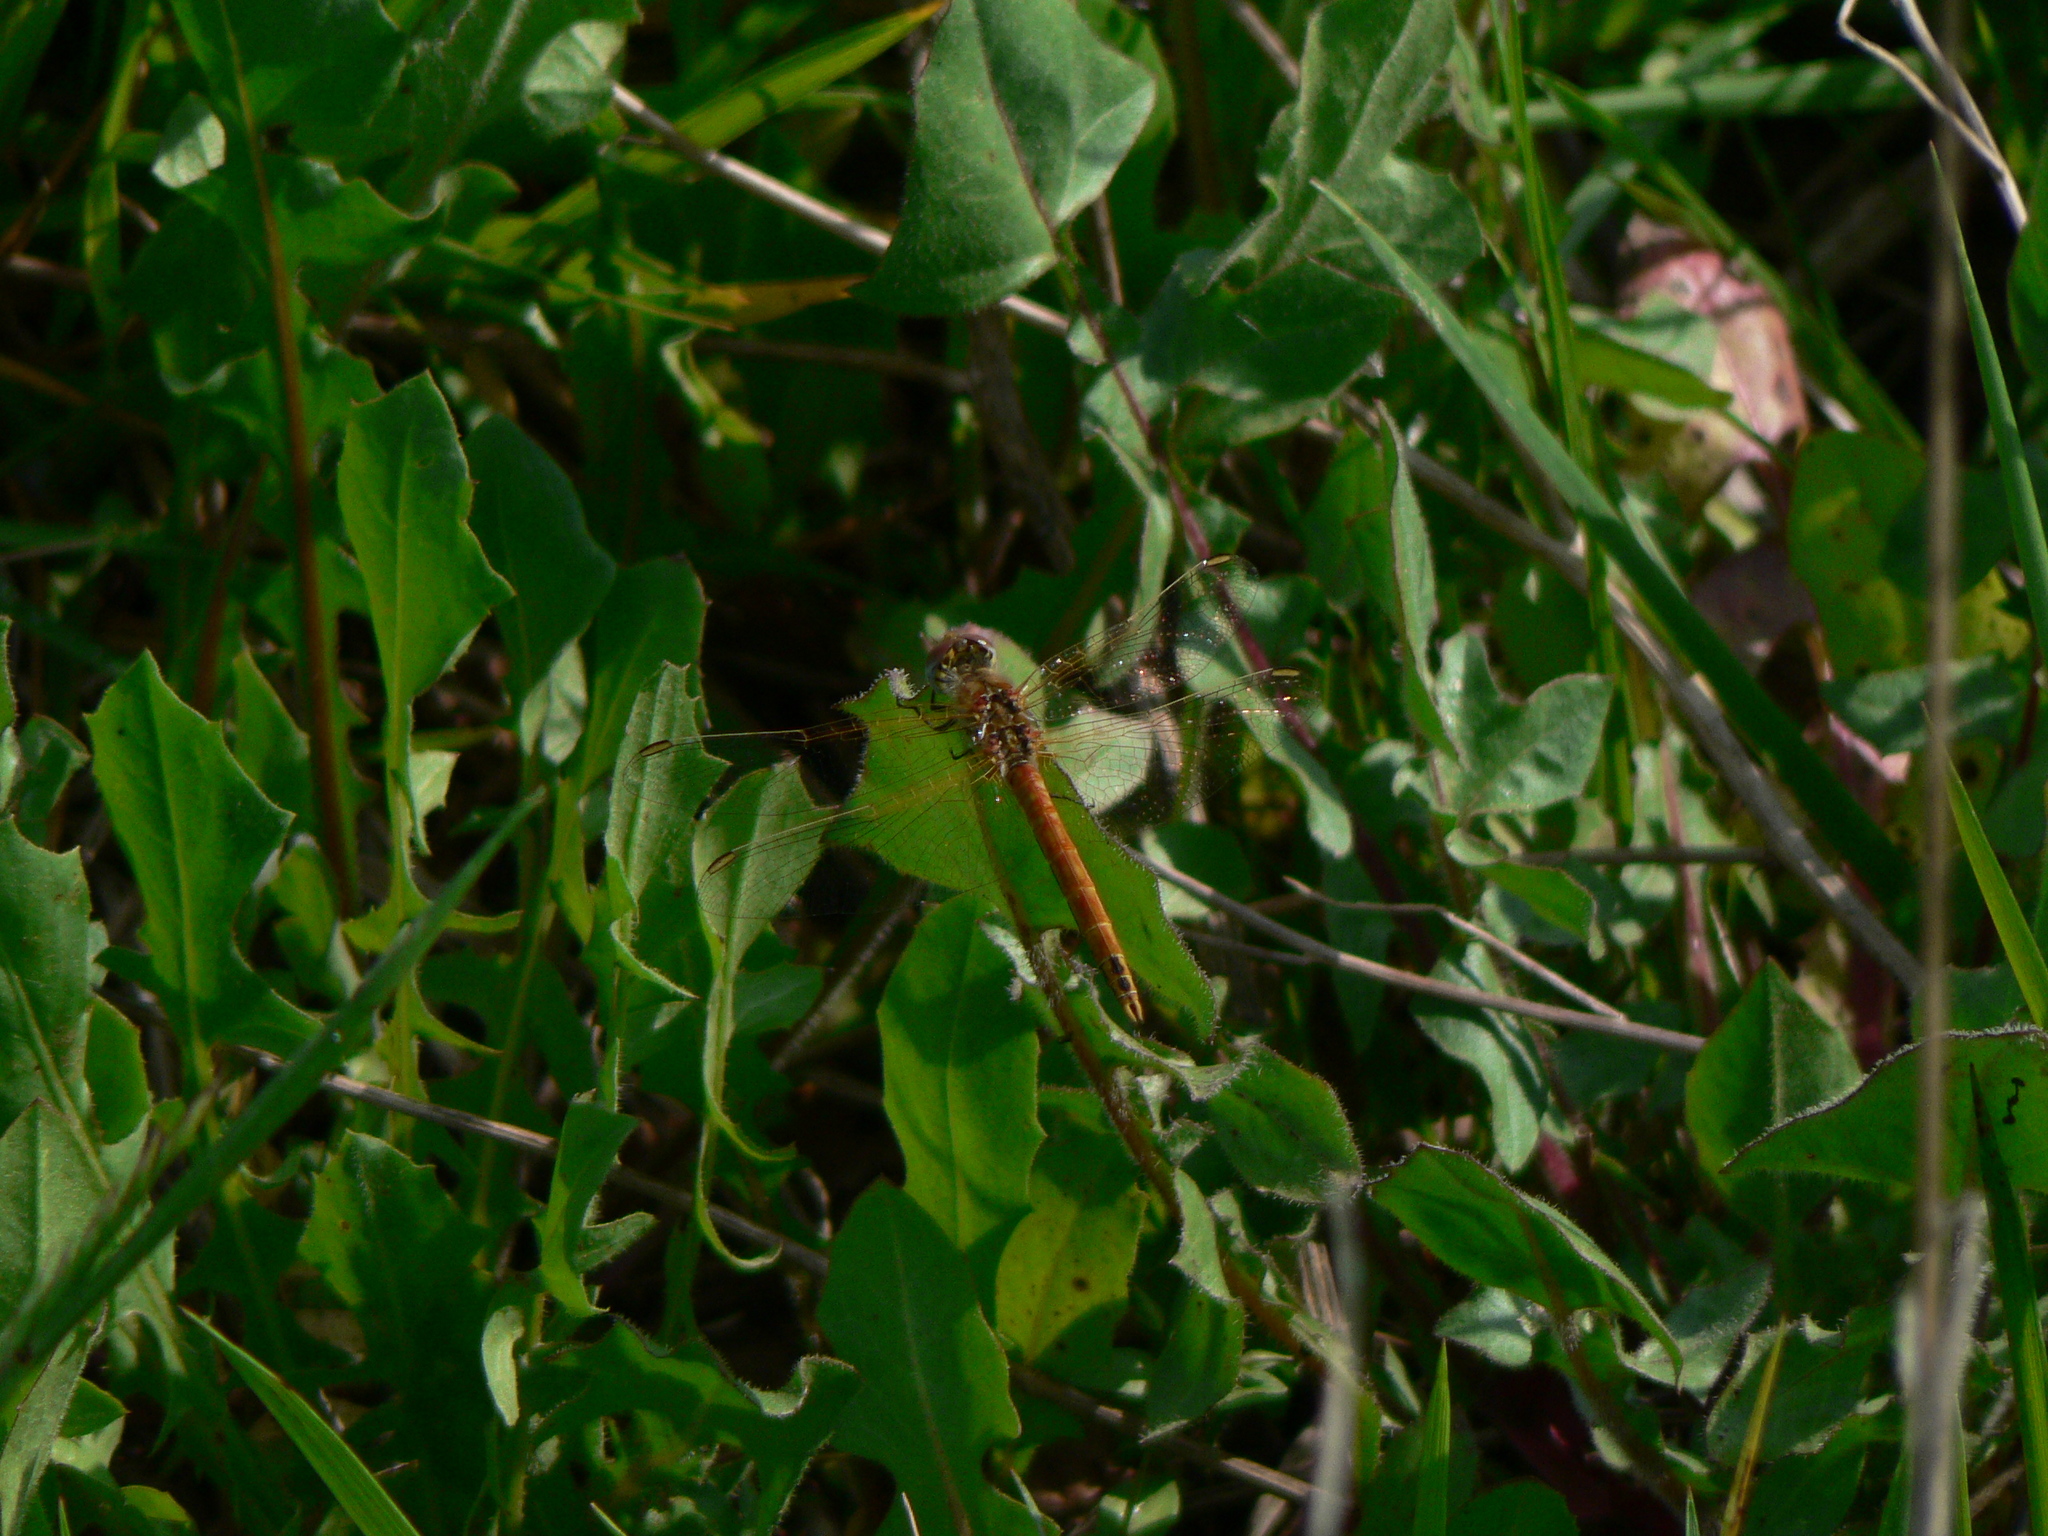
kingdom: Animalia
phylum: Arthropoda
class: Insecta
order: Odonata
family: Libellulidae
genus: Sympetrum
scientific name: Sympetrum fonscolombii
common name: Red-veined darter
